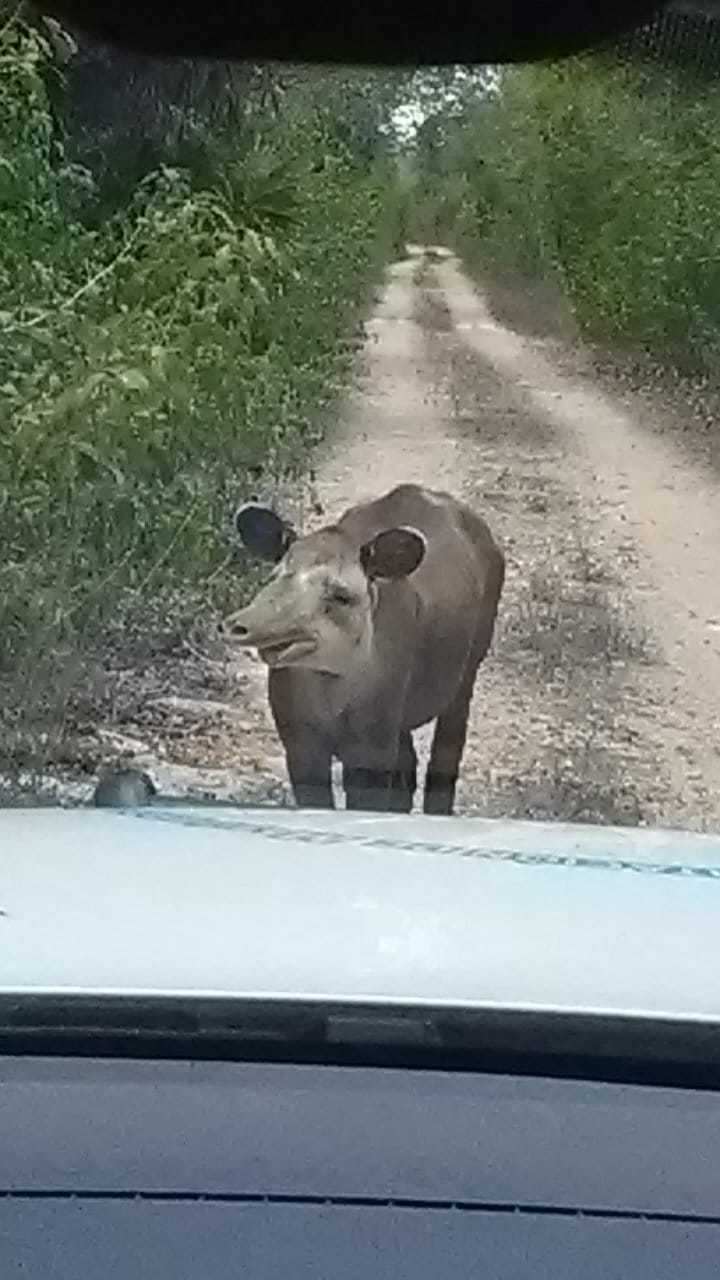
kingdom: Animalia
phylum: Chordata
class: Mammalia
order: Perissodactyla
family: Tapiridae
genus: Tapirella
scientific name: Tapirella bairdii
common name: Baird's tapir
